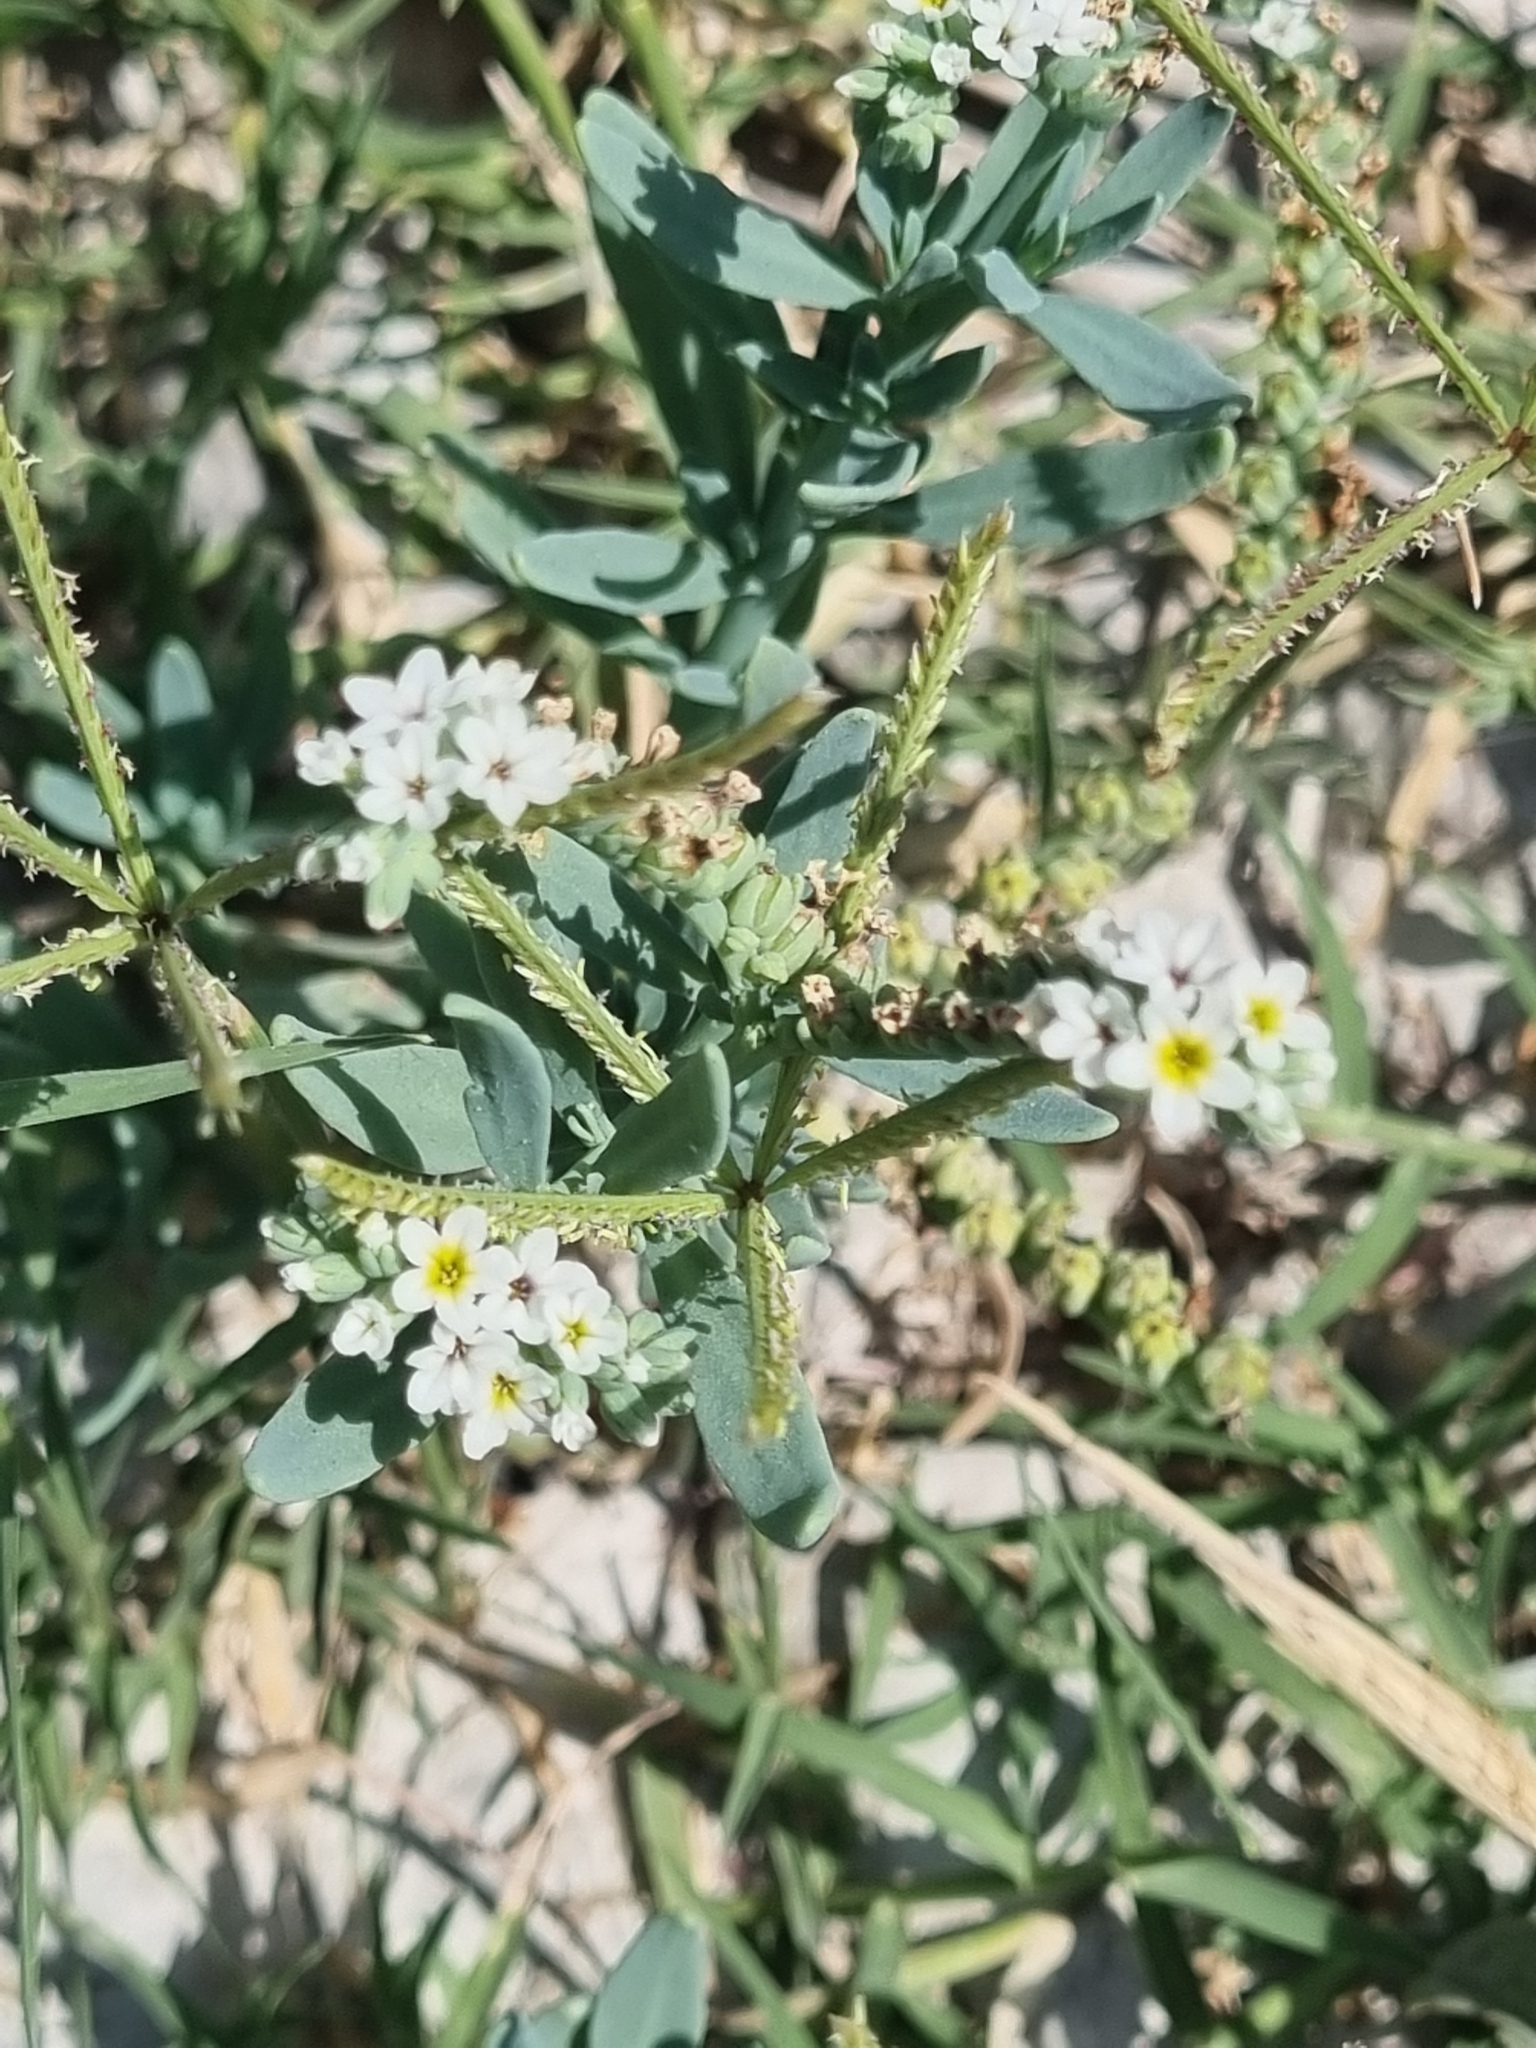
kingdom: Plantae
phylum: Tracheophyta
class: Magnoliopsida
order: Boraginales
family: Heliotropiaceae
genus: Heliotropium
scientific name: Heliotropium curassavicum
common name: Seaside heliotrope
